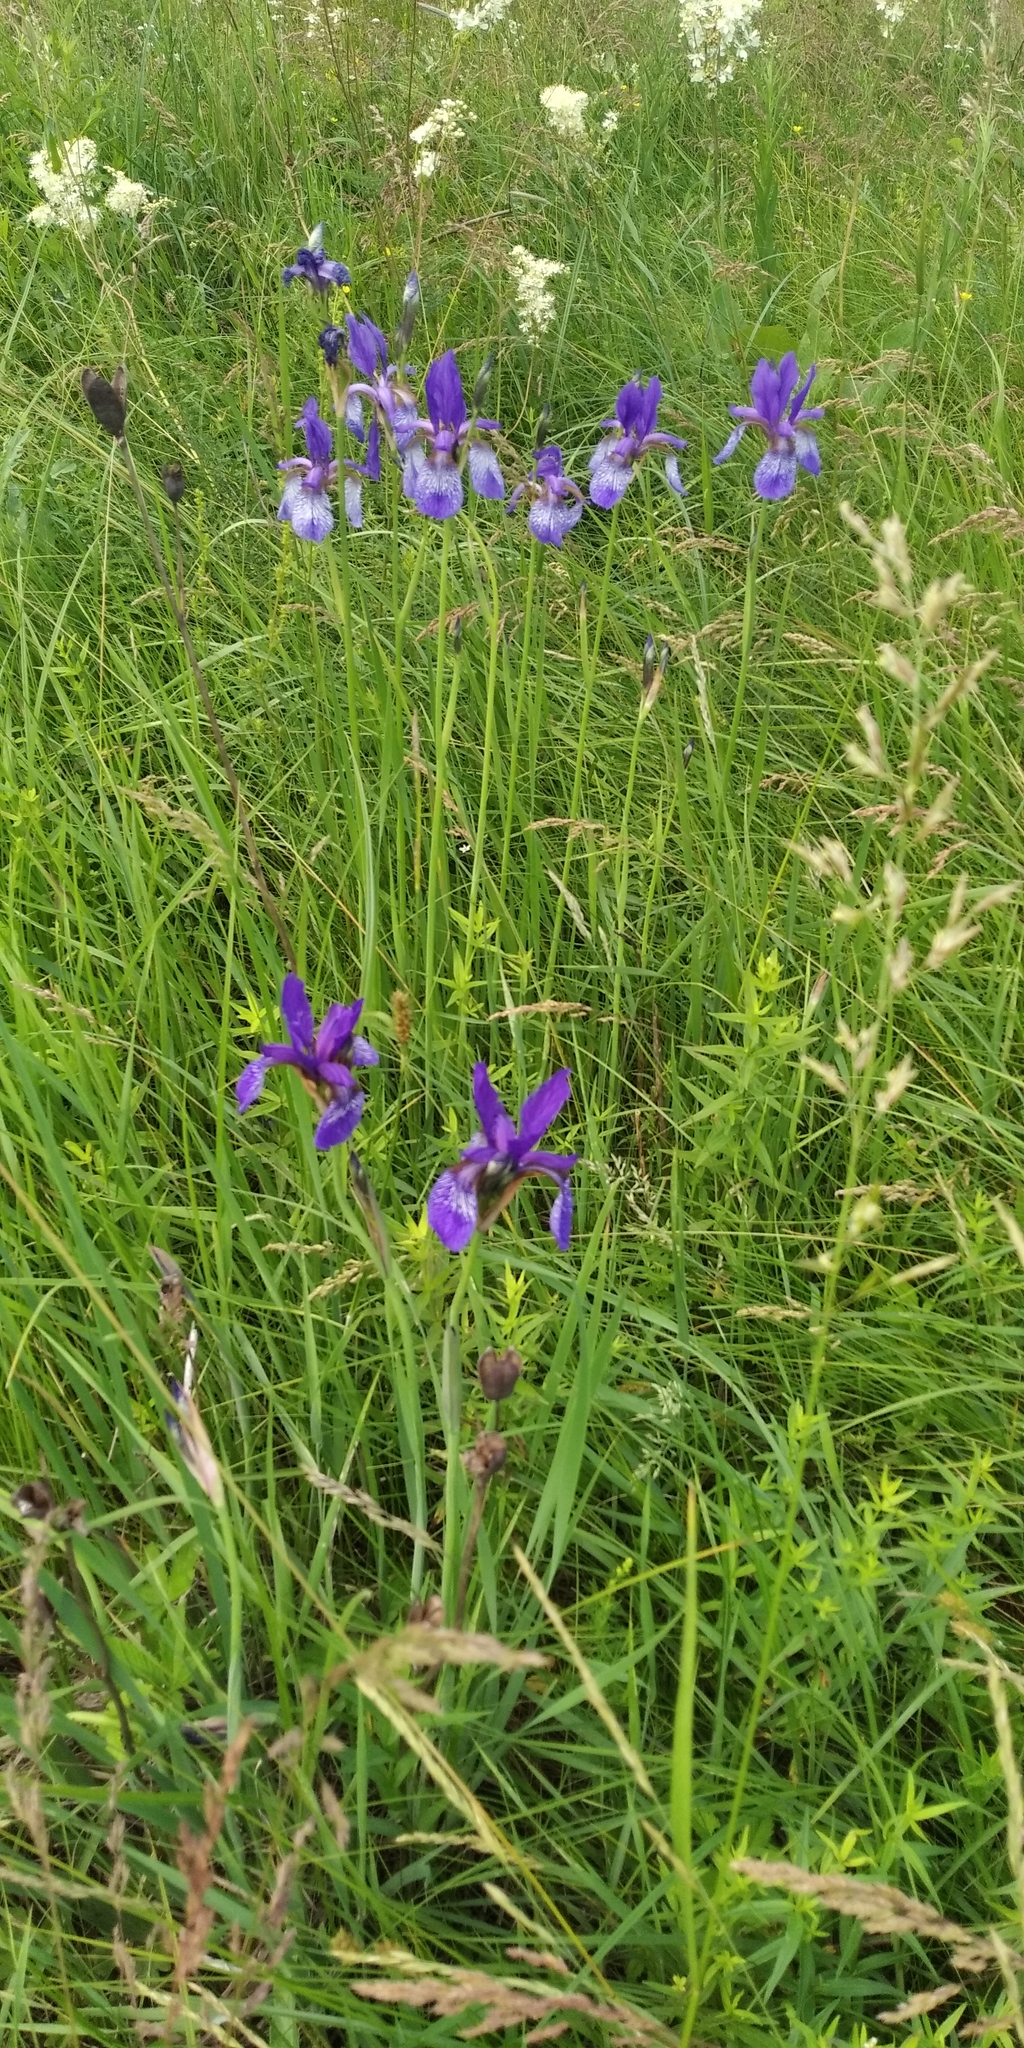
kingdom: Plantae
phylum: Tracheophyta
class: Liliopsida
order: Asparagales
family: Iridaceae
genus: Iris
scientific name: Iris sibirica
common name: Siberian iris
